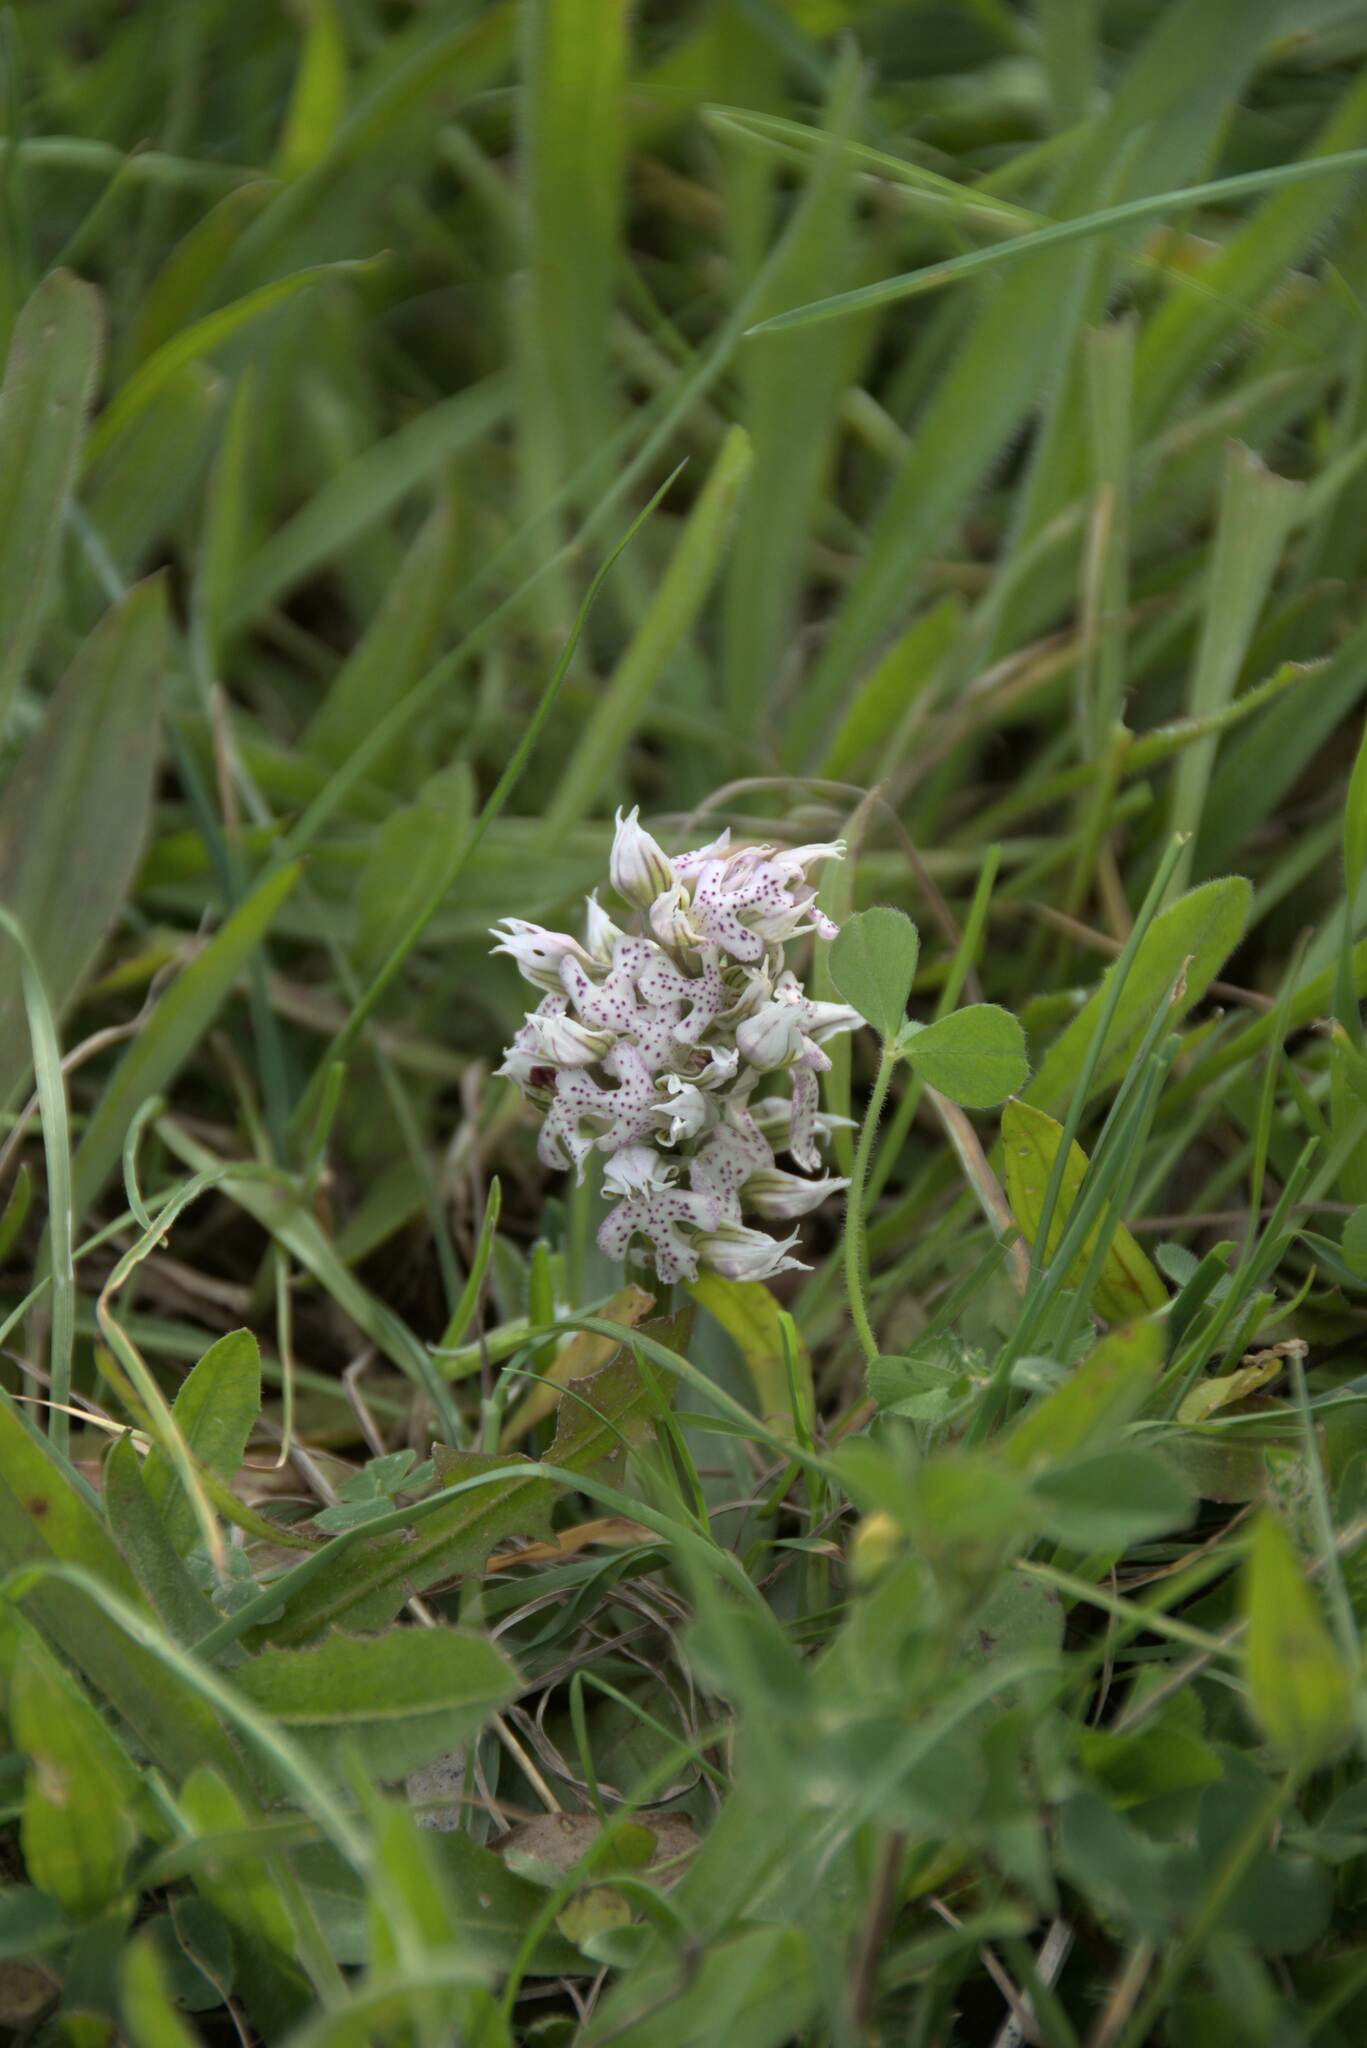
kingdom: Plantae
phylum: Tracheophyta
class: Liliopsida
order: Asparagales
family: Orchidaceae
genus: Neotinea
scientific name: Neotinea lactea
